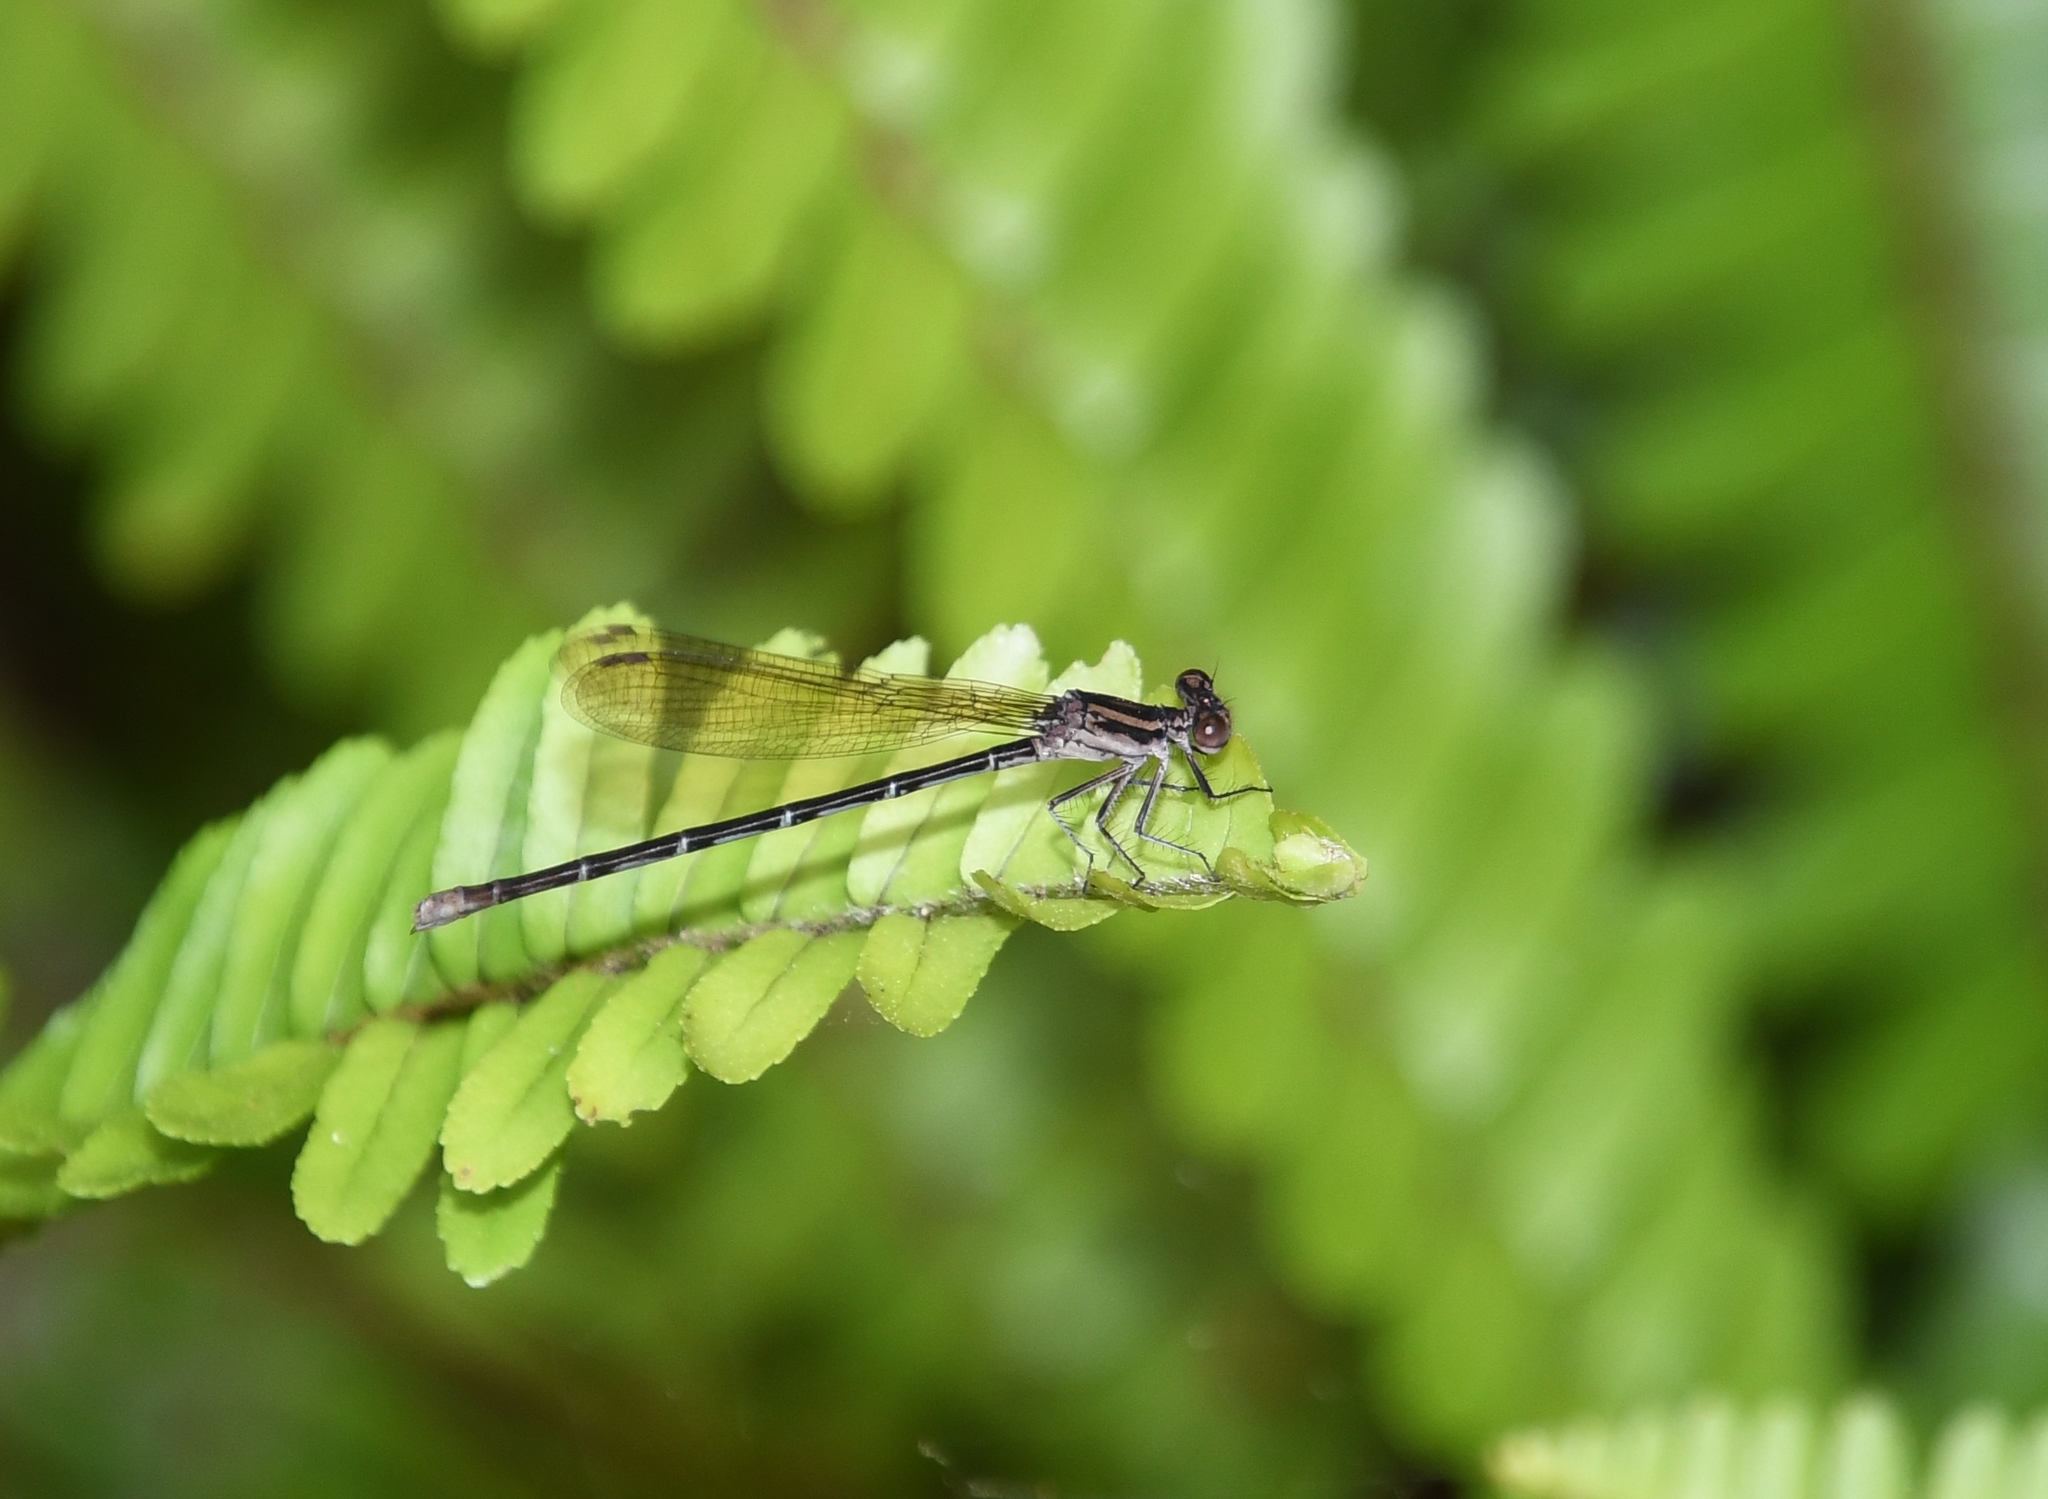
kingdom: Animalia
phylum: Arthropoda
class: Insecta
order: Odonata
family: Coenagrionidae
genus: Argia
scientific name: Argia sedula
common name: Blue-ringed dancer
